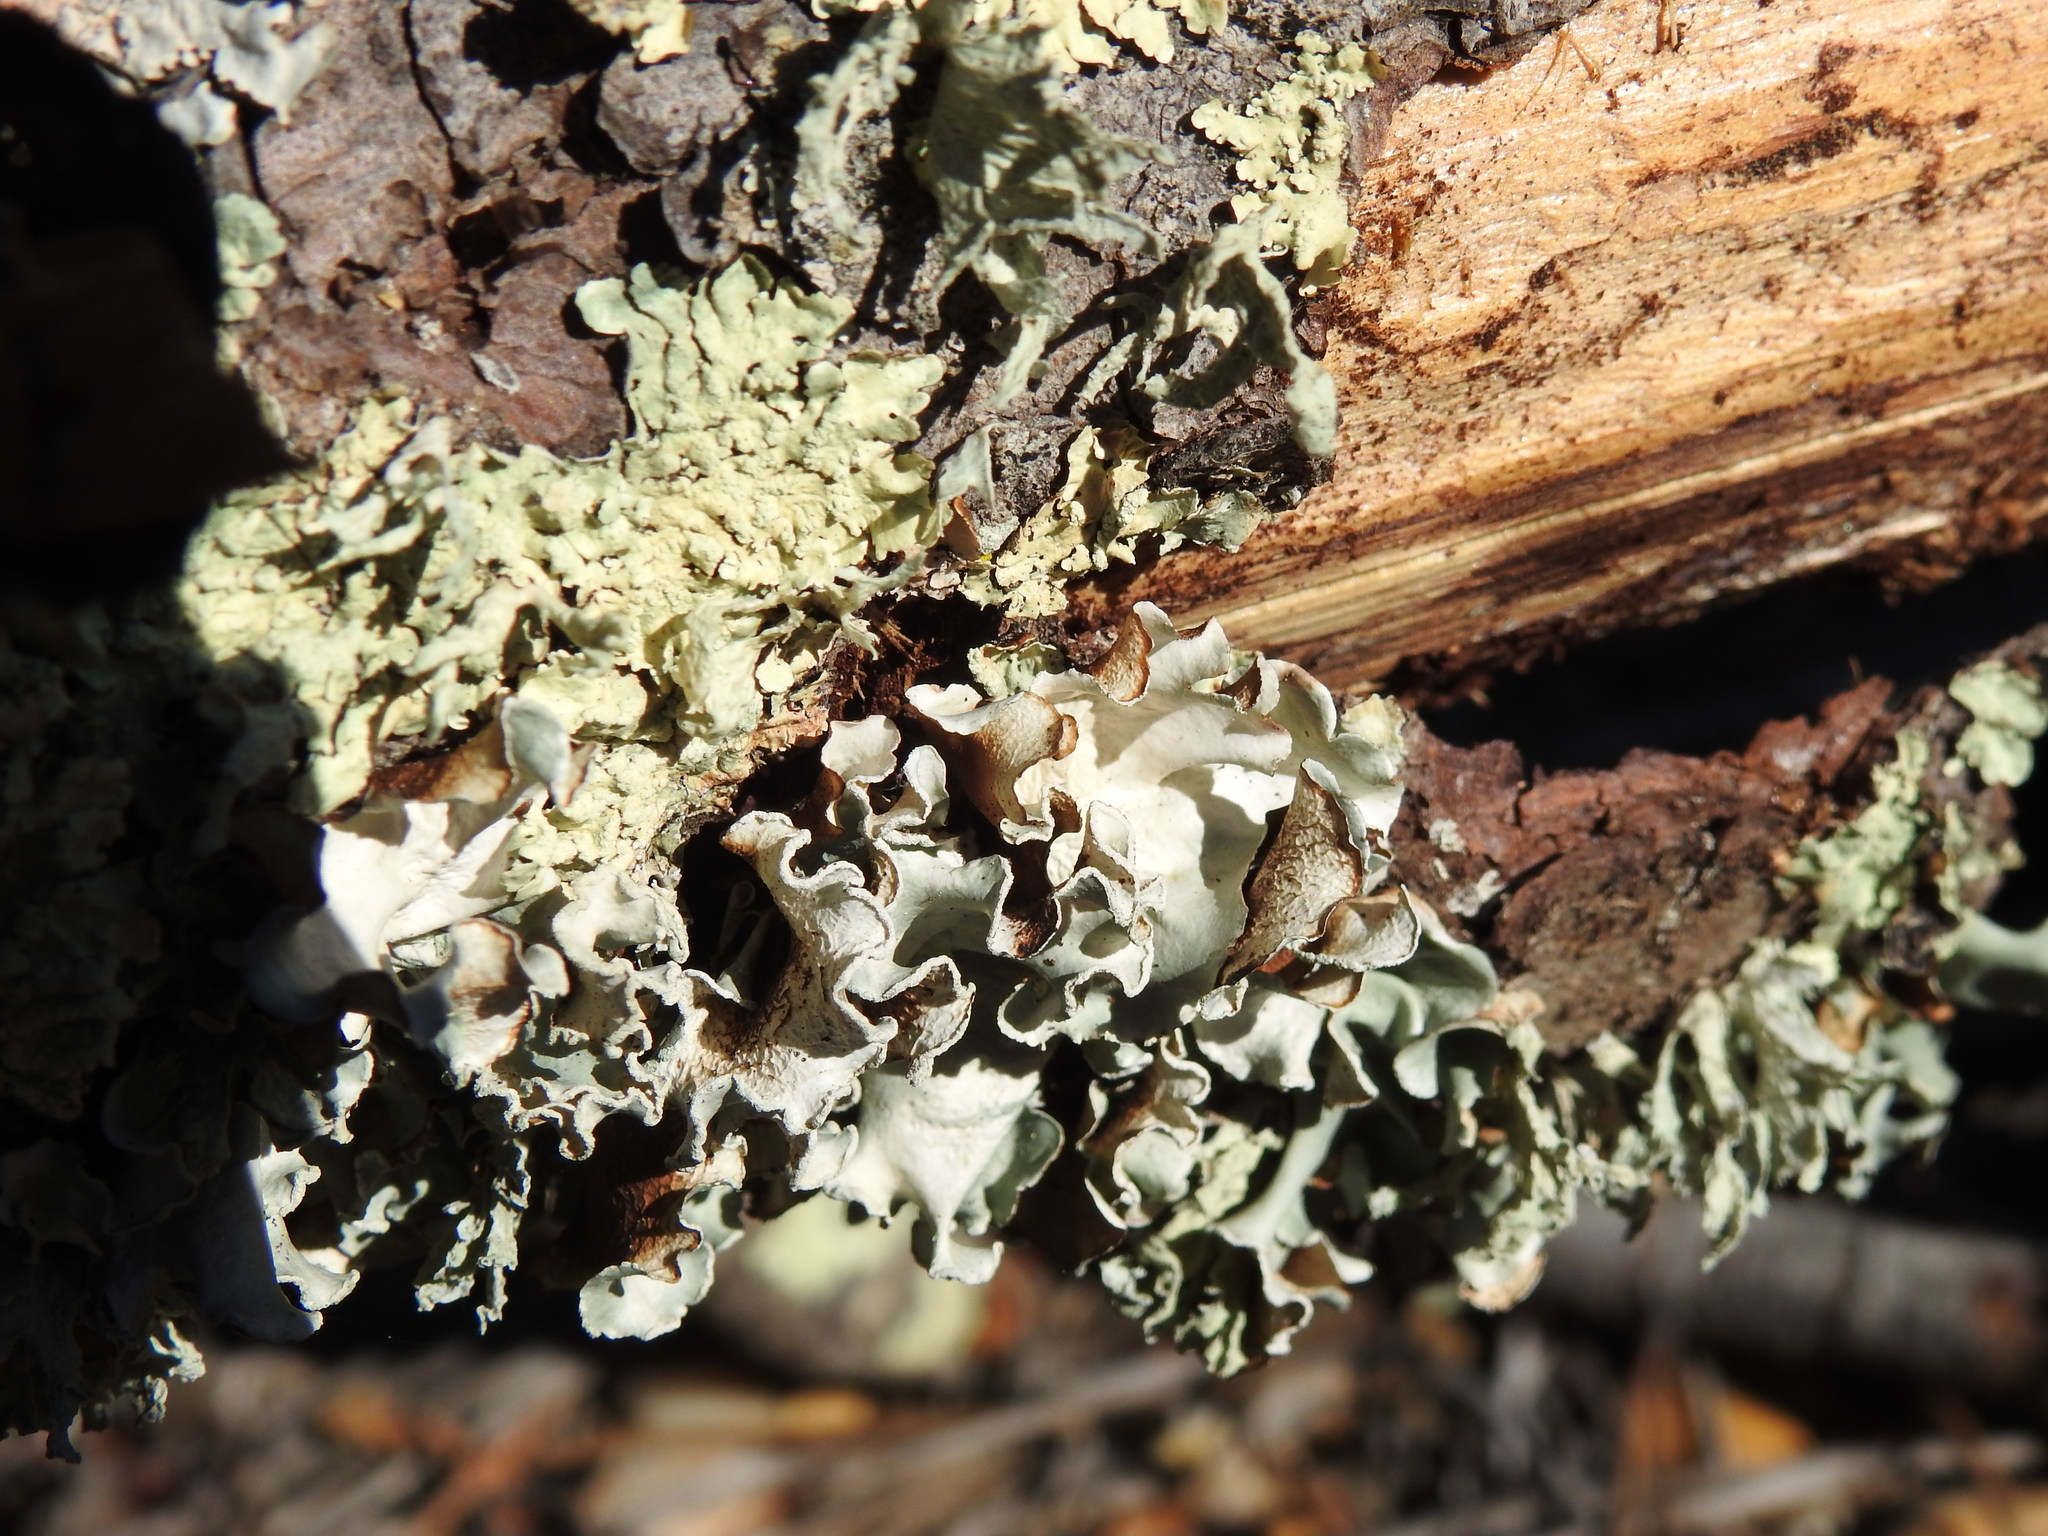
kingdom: Fungi
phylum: Ascomycota
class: Lecanoromycetes
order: Lecanorales
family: Parmeliaceae
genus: Parmotrema
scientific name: Parmotrema hypoleucinum
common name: Lacy powdered-ruffle
